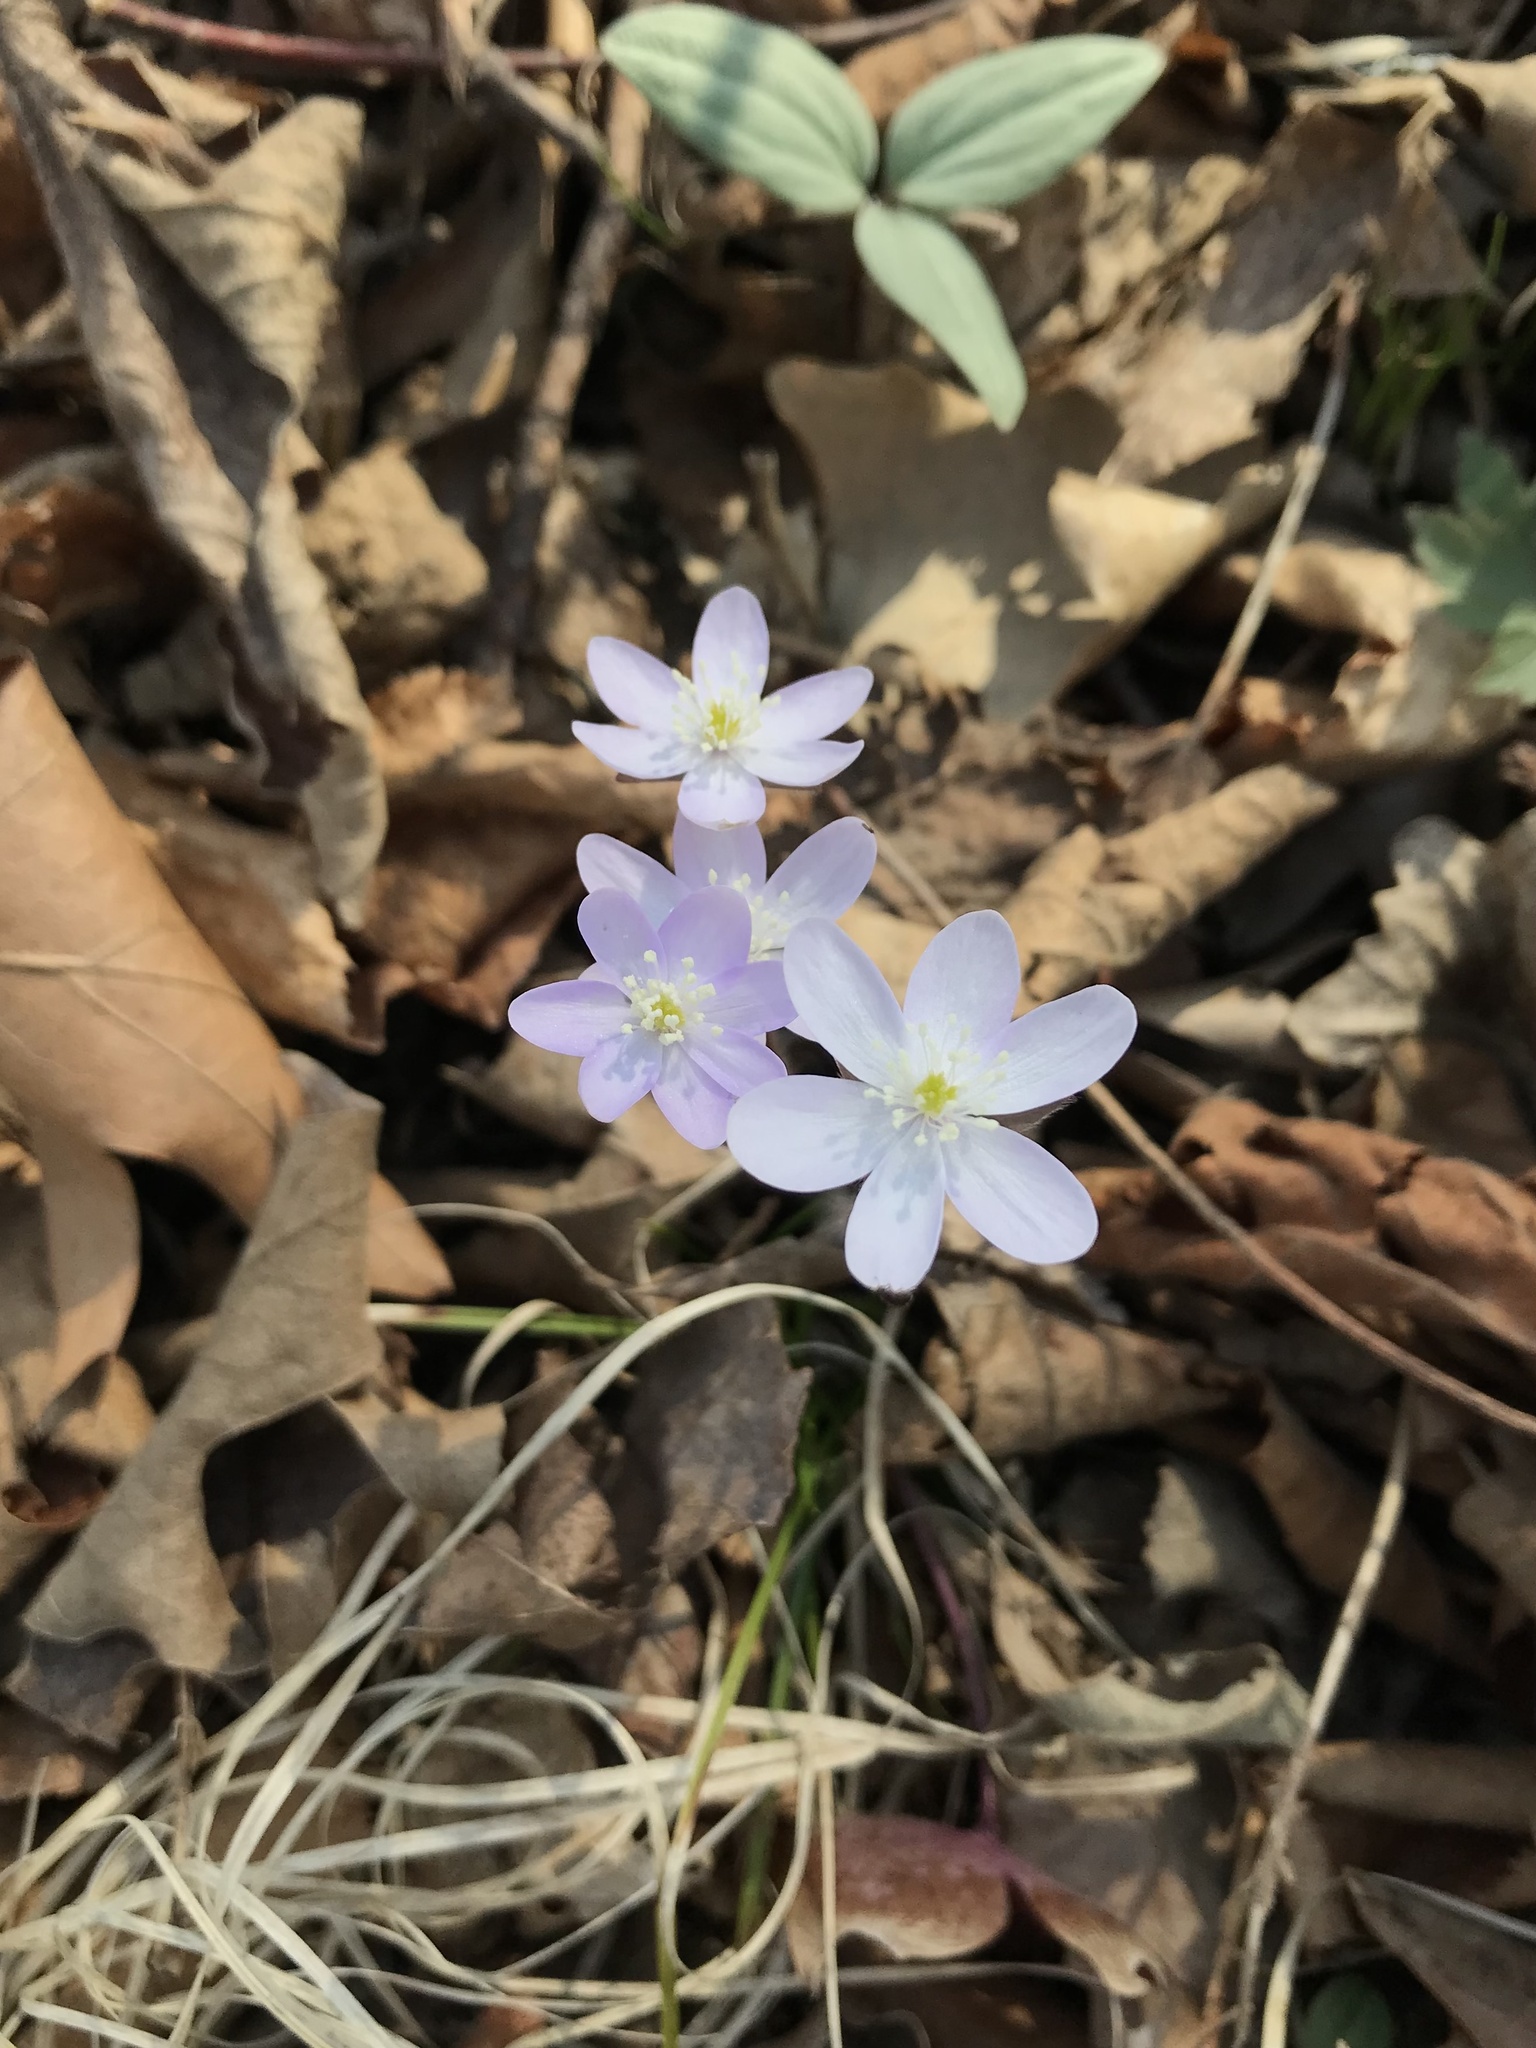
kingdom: Plantae
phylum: Tracheophyta
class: Magnoliopsida
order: Ranunculales
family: Ranunculaceae
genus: Hepatica
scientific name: Hepatica acutiloba
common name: Sharp-lobed hepatica
